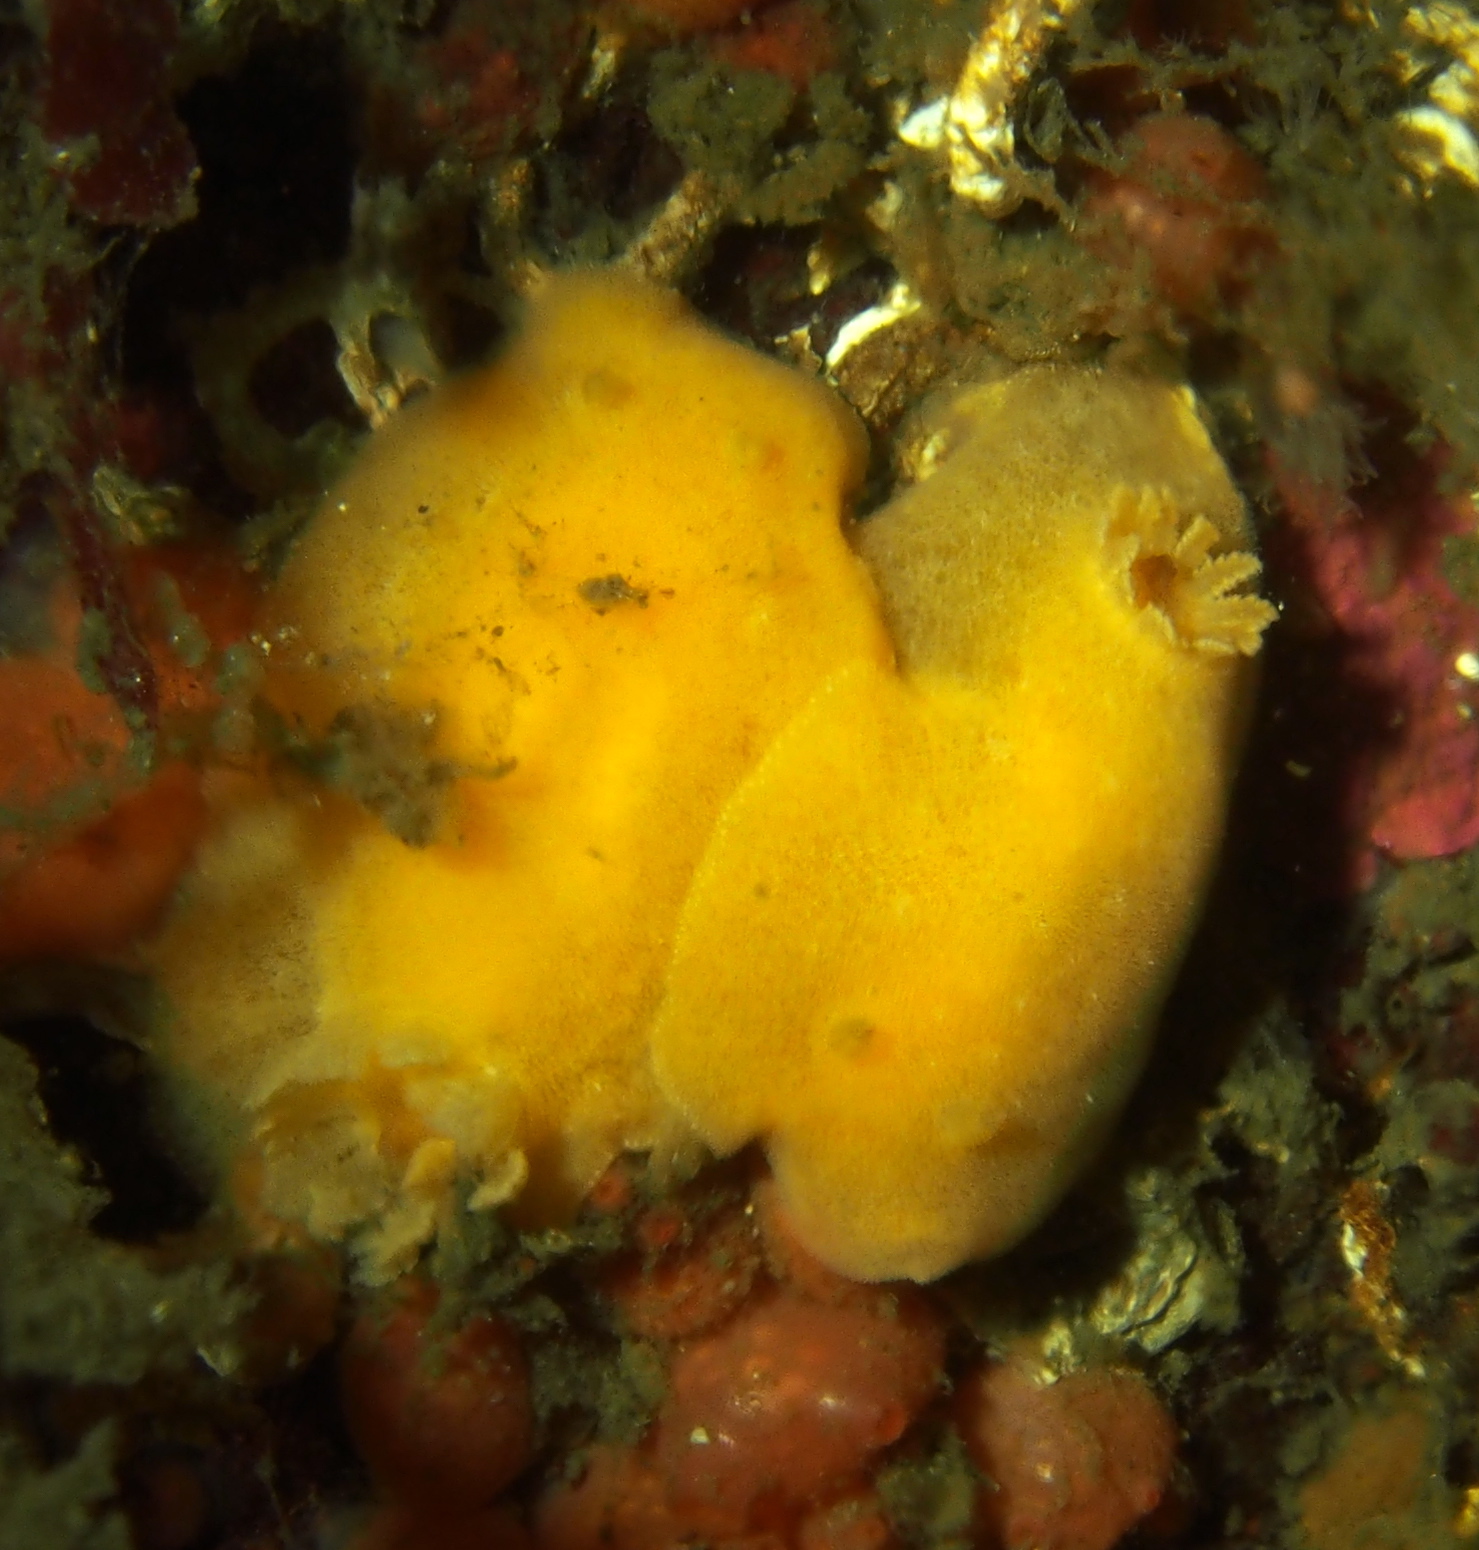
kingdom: Animalia
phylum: Mollusca
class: Gastropoda
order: Nudibranchia
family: Discodorididae
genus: Jorunna
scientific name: Jorunna tomentosa
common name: Grey sea slug
